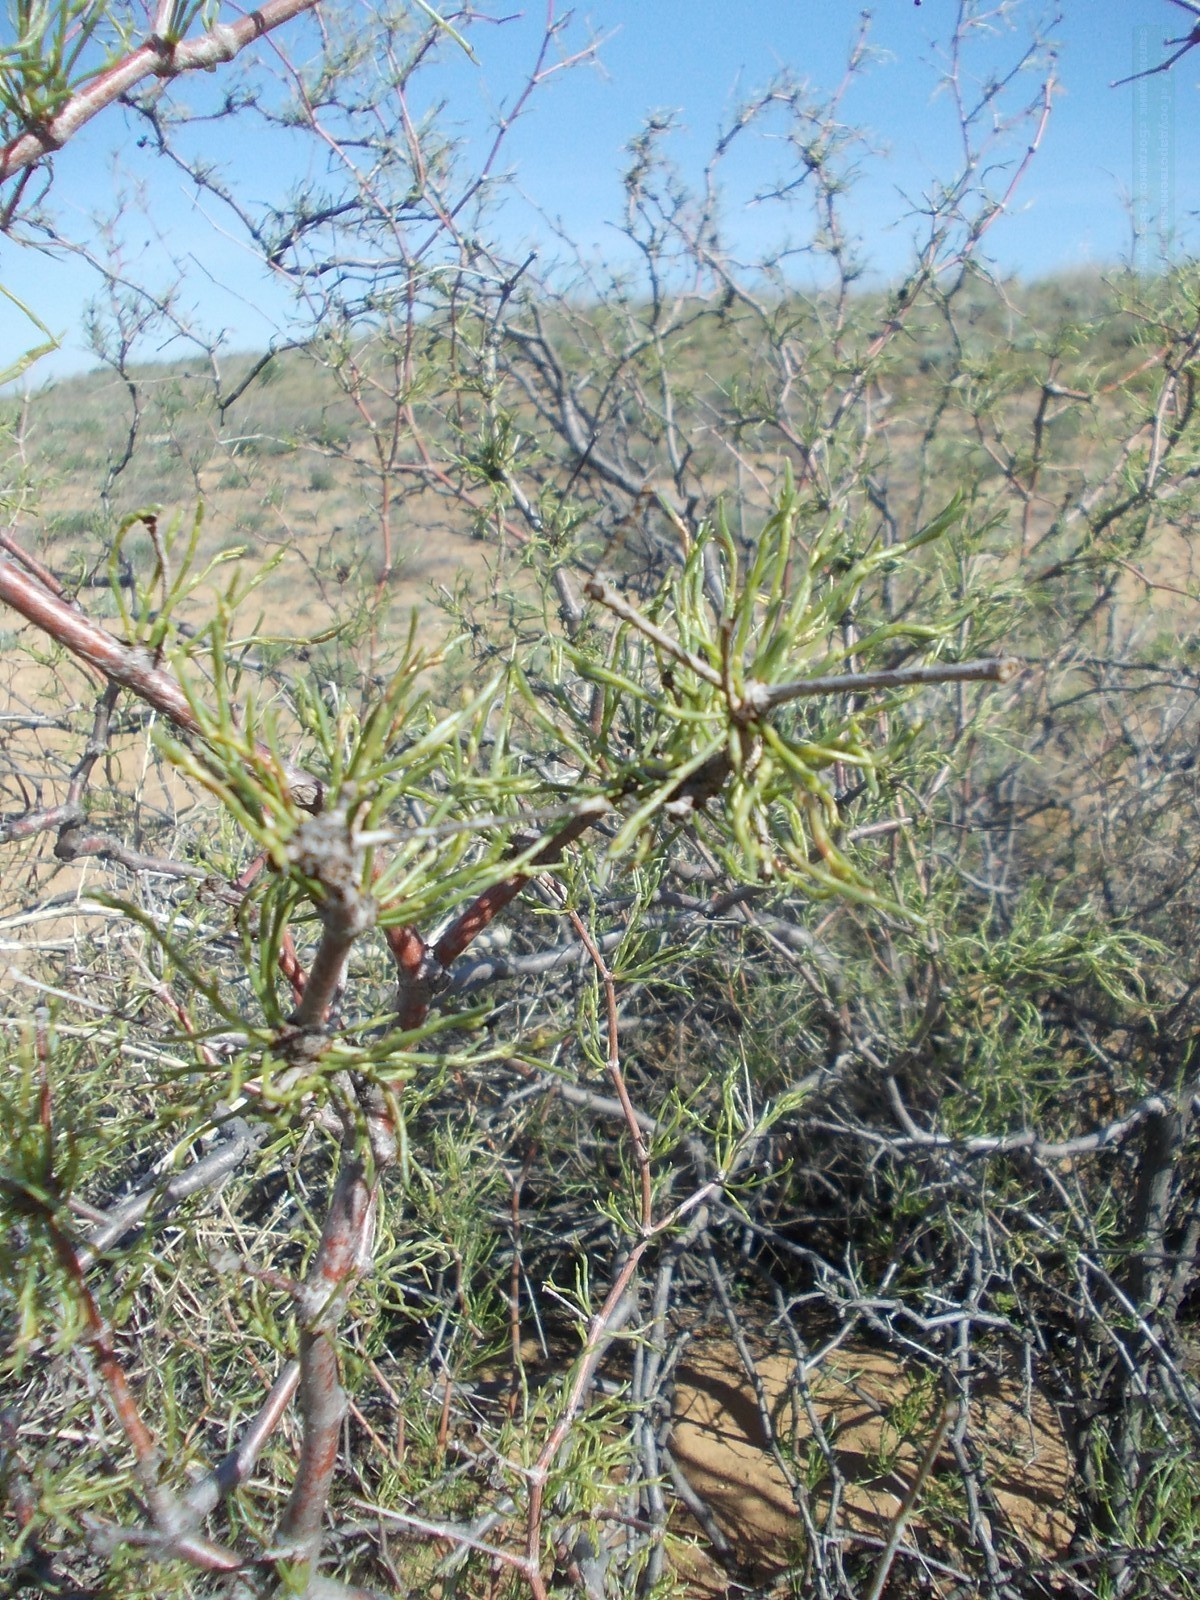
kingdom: Plantae
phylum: Tracheophyta
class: Magnoliopsida
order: Caryophyllales
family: Polygonaceae
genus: Calligonum
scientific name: Calligonum aphyllum
